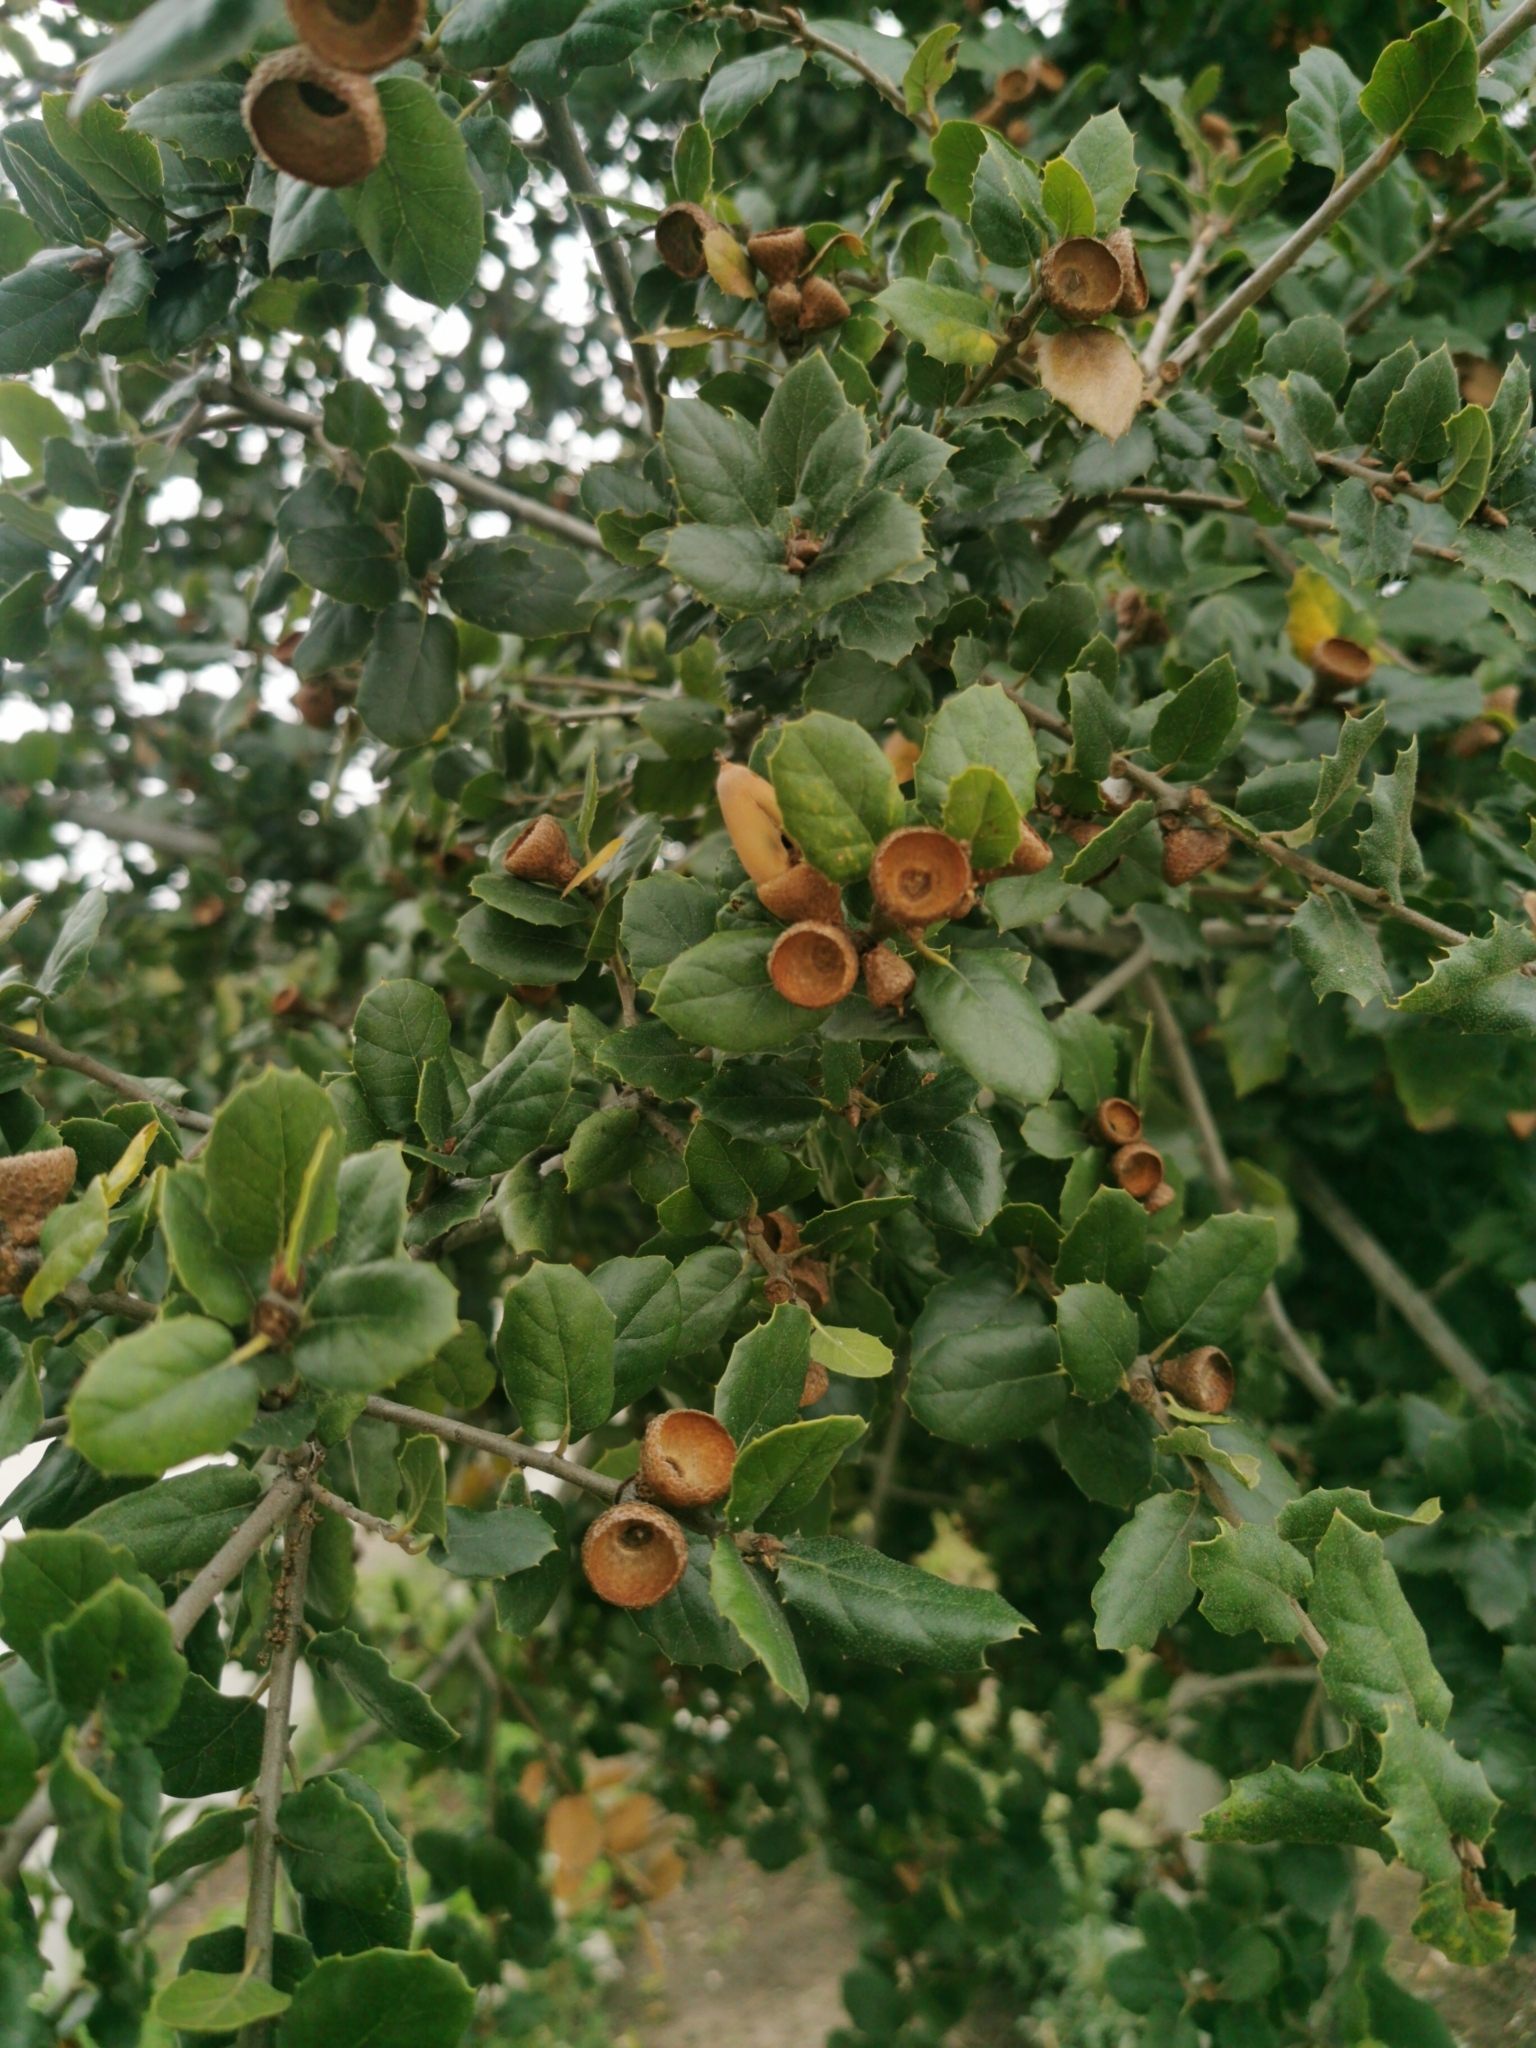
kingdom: Plantae
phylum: Tracheophyta
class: Magnoliopsida
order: Fagales
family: Fagaceae
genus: Quercus
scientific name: Quercus agrifolia
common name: California live oak
